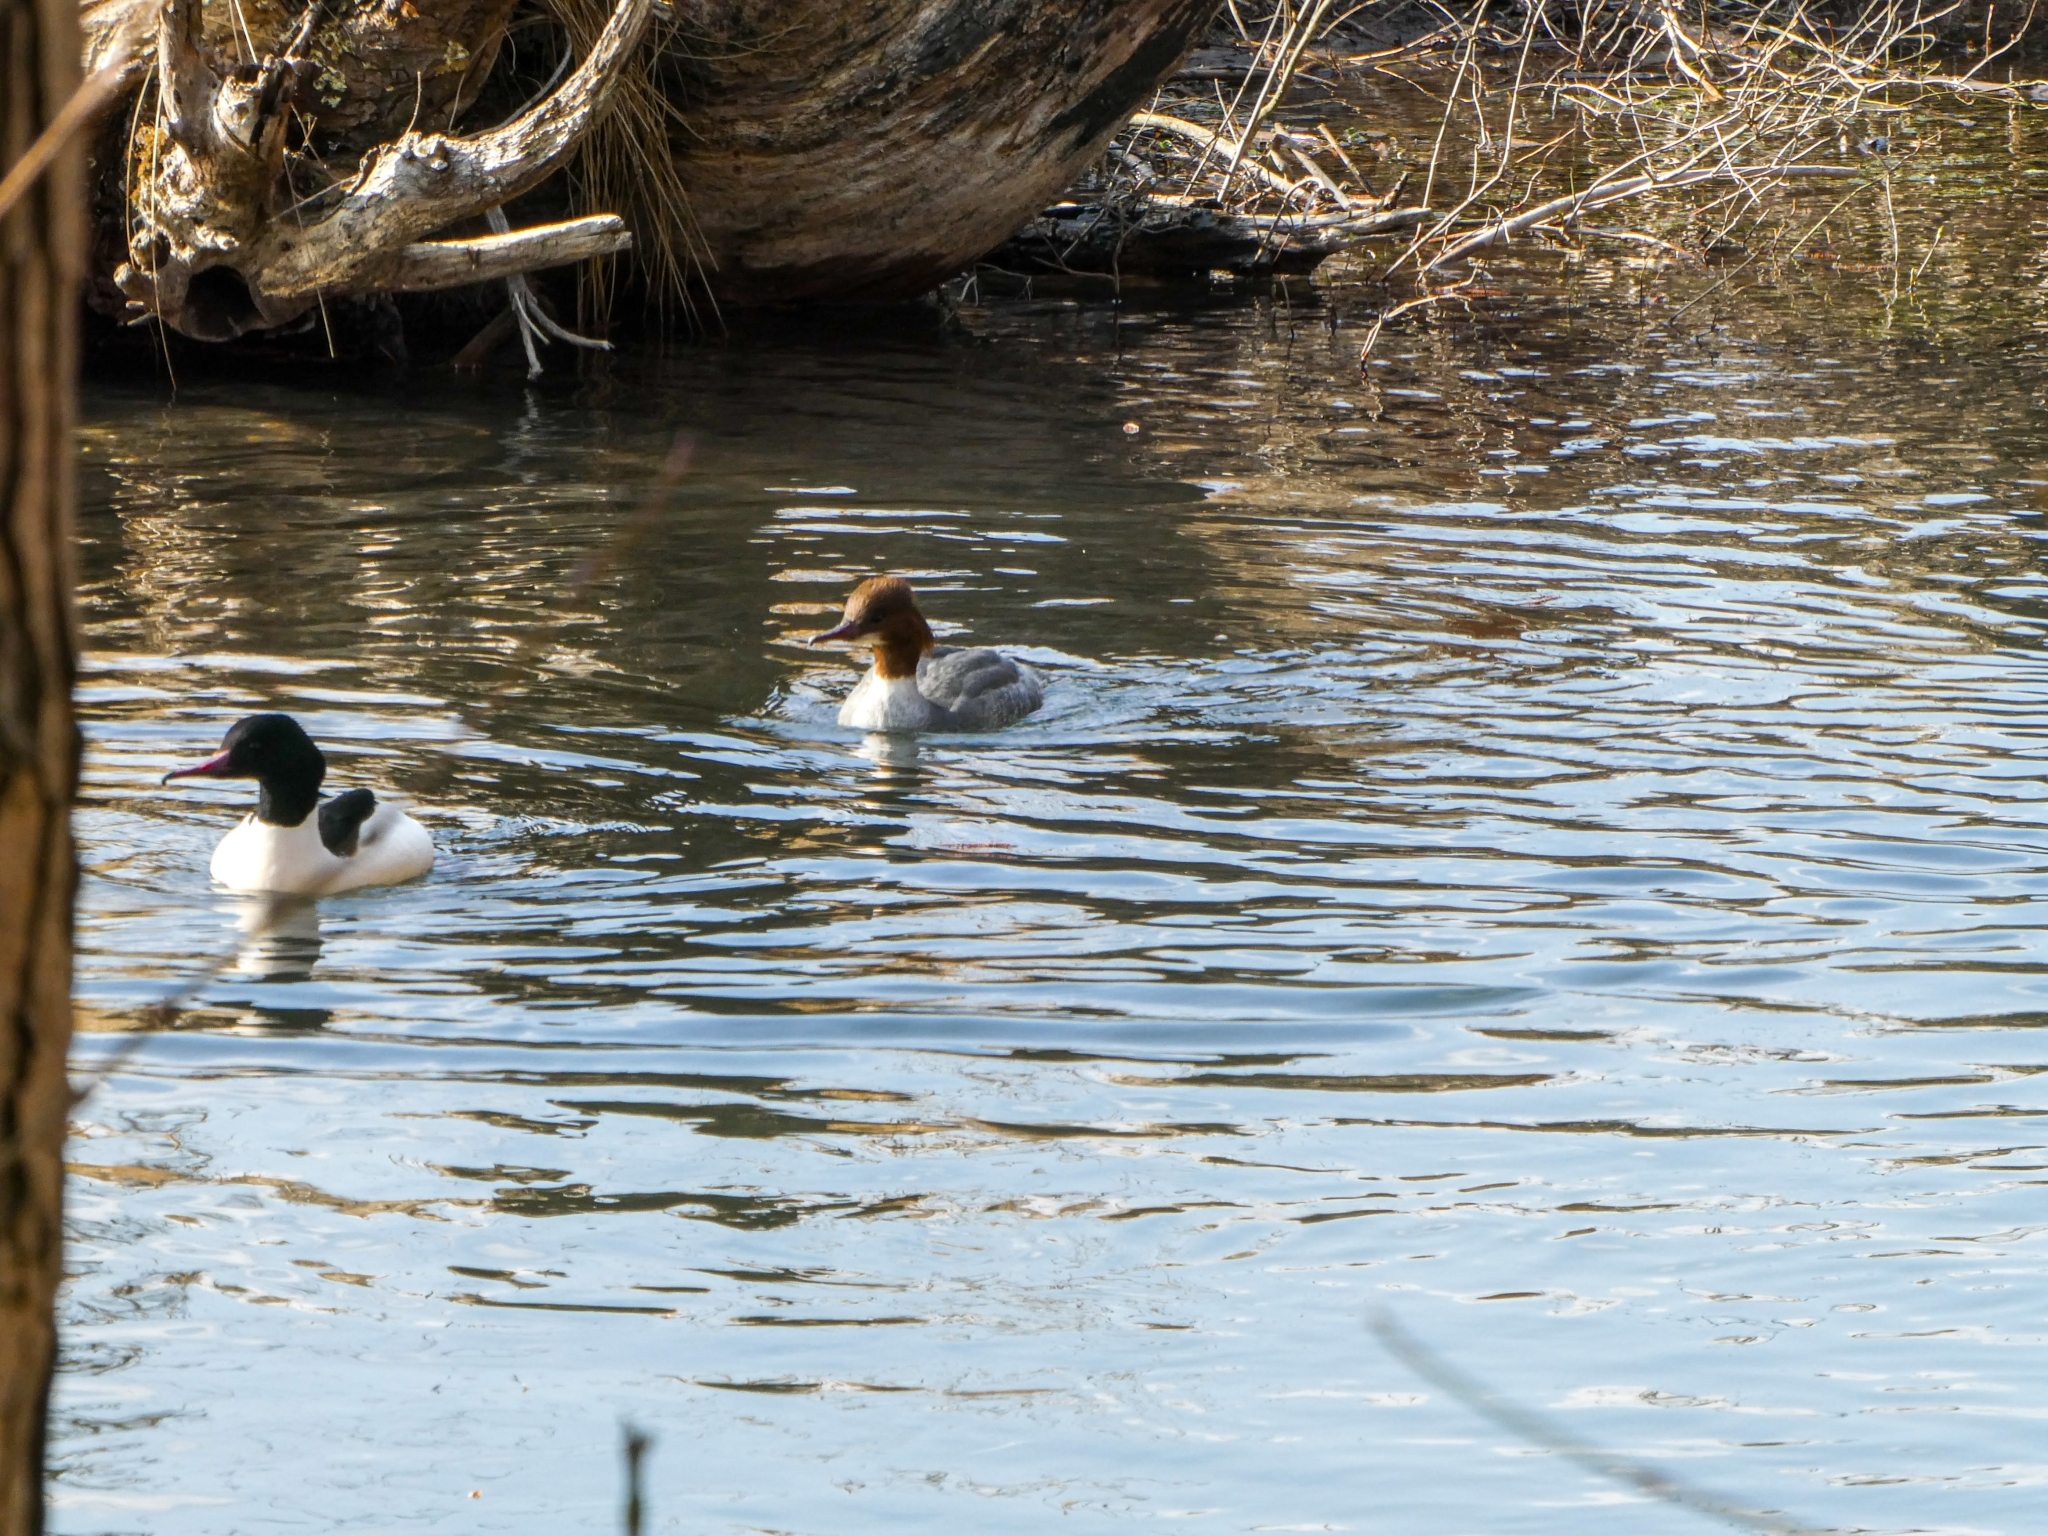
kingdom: Animalia
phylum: Chordata
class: Aves
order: Anseriformes
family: Anatidae
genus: Mergus
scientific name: Mergus merganser
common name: Common merganser
